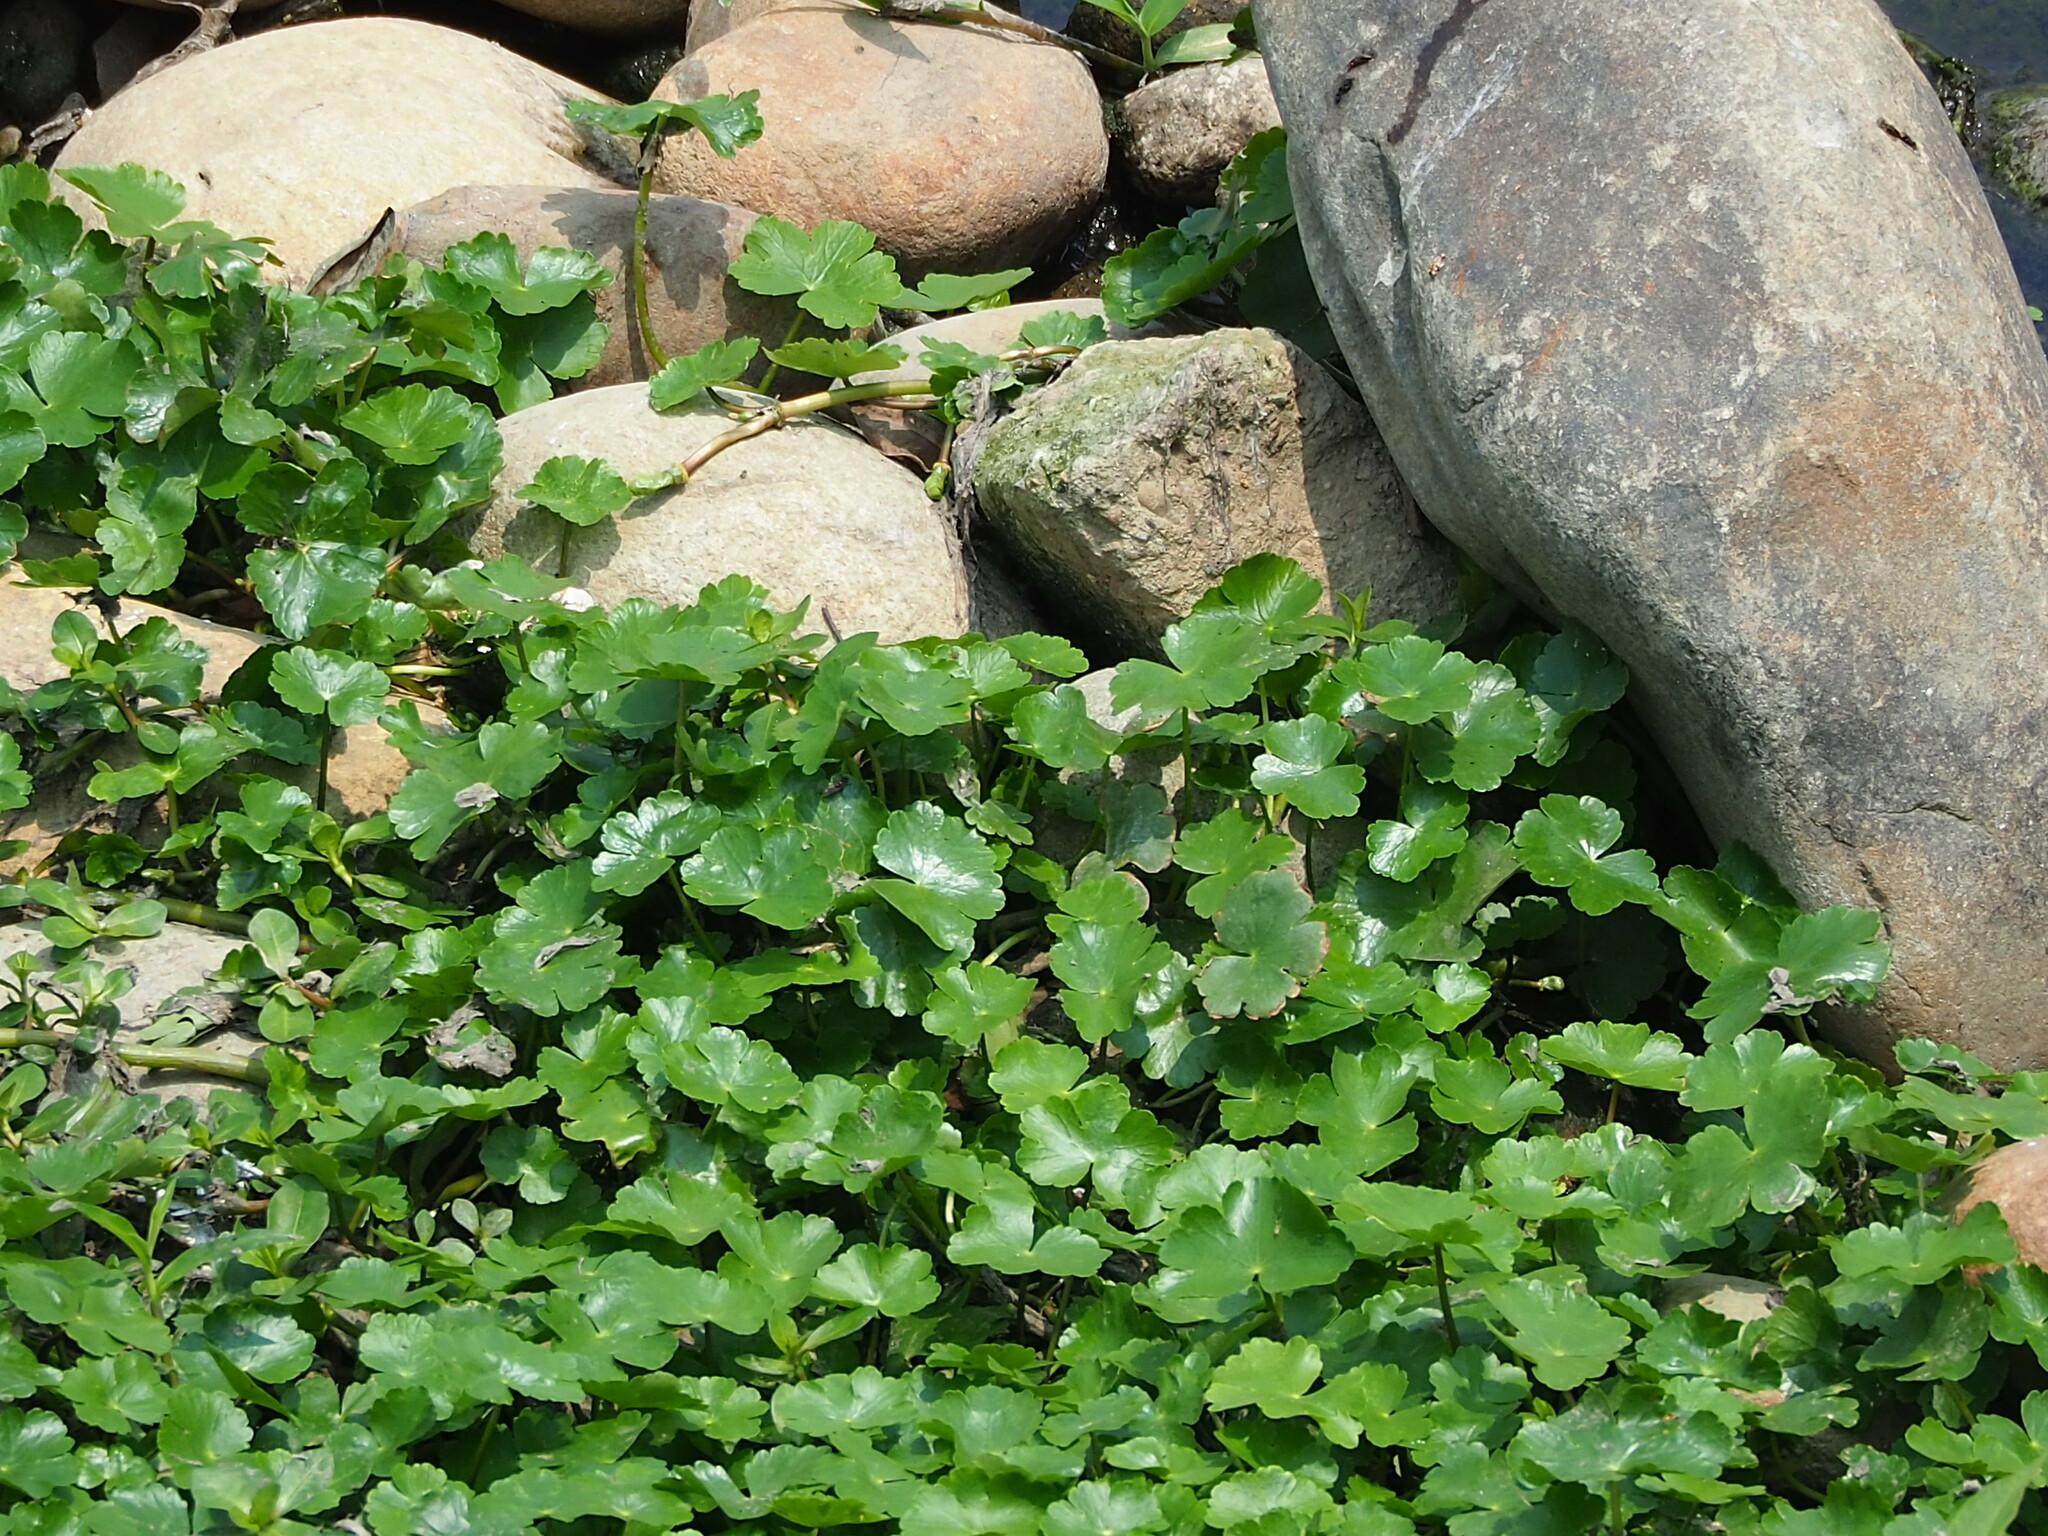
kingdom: Plantae
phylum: Tracheophyta
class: Magnoliopsida
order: Apiales
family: Araliaceae
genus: Hydrocotyle
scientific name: Hydrocotyle ranunculoides
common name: Floating pennywort
